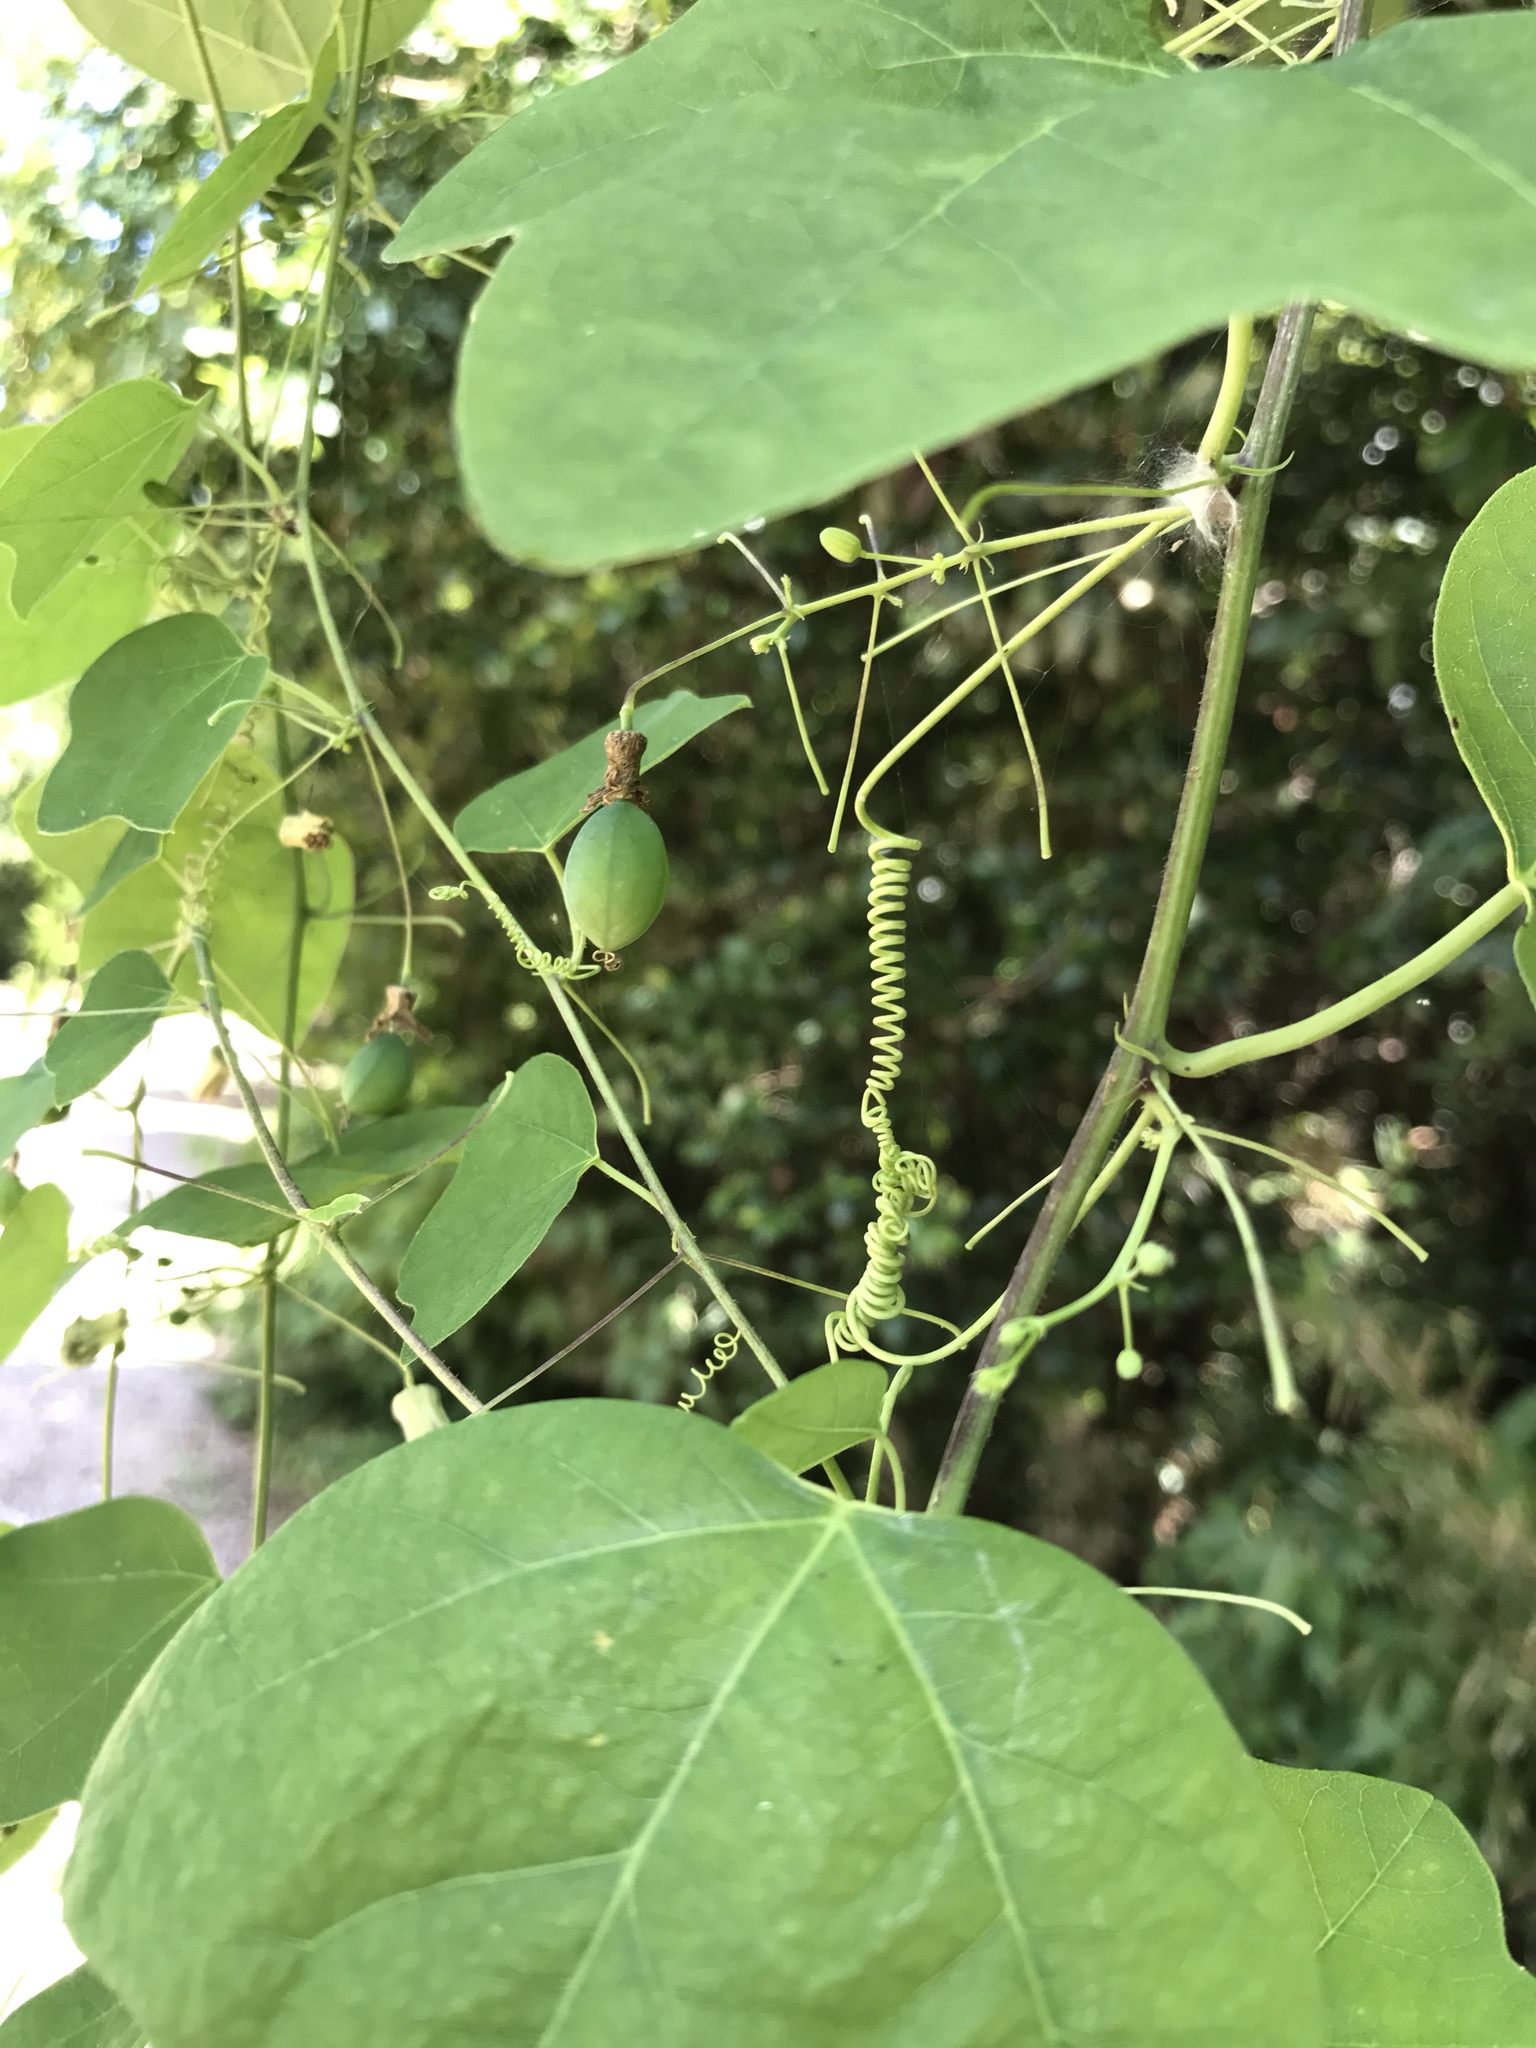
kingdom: Plantae
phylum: Tracheophyta
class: Magnoliopsida
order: Malpighiales
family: Passifloraceae
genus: Passiflora
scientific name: Passiflora lutea
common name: Yellow passionflower
